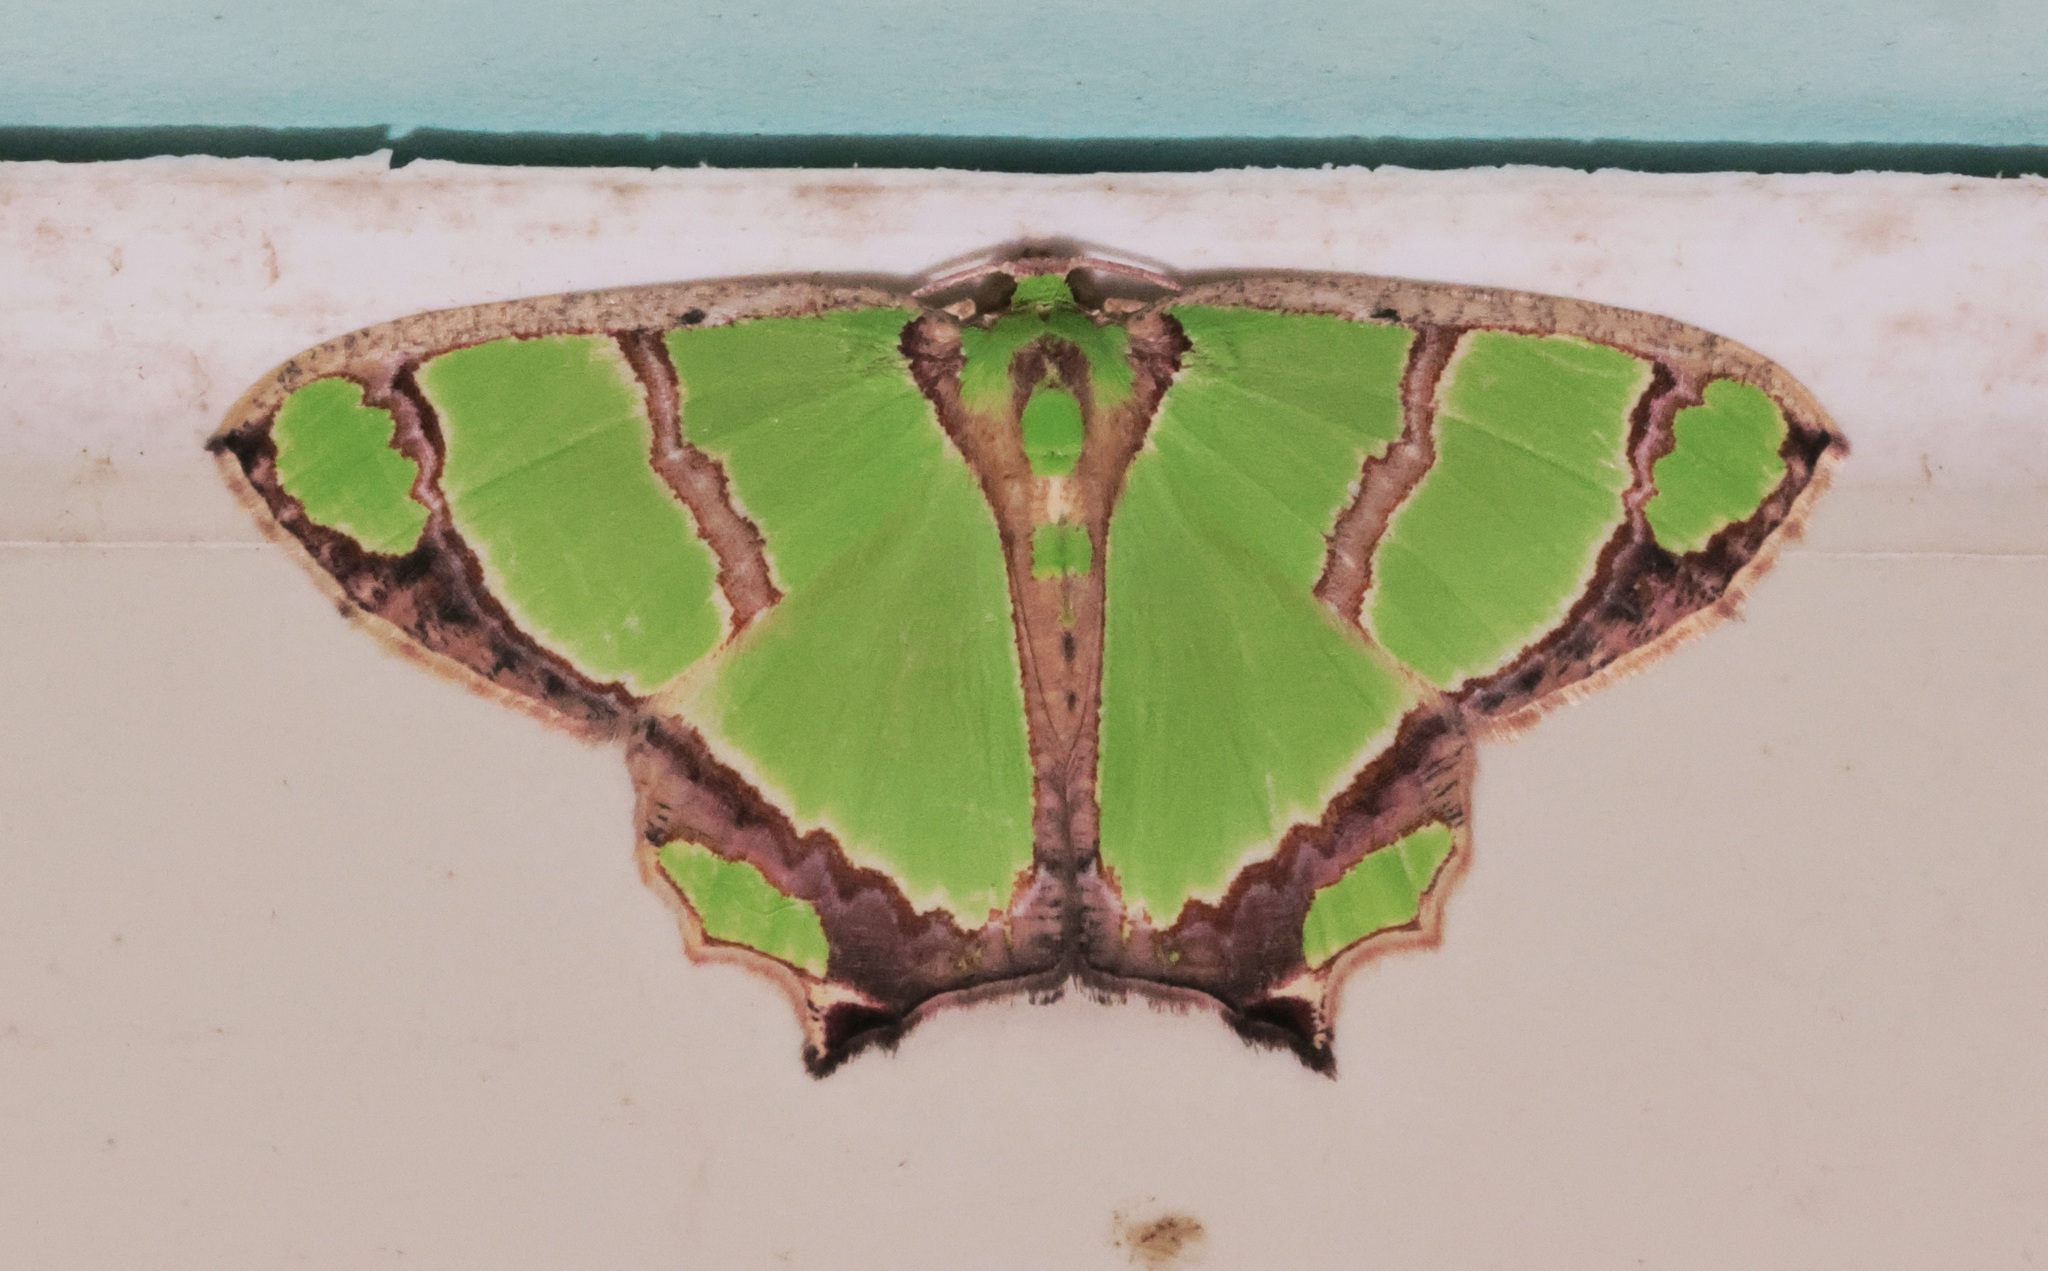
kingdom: Animalia
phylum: Arthropoda
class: Insecta
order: Lepidoptera
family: Geometridae
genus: Agathia
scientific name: Agathia carissima
